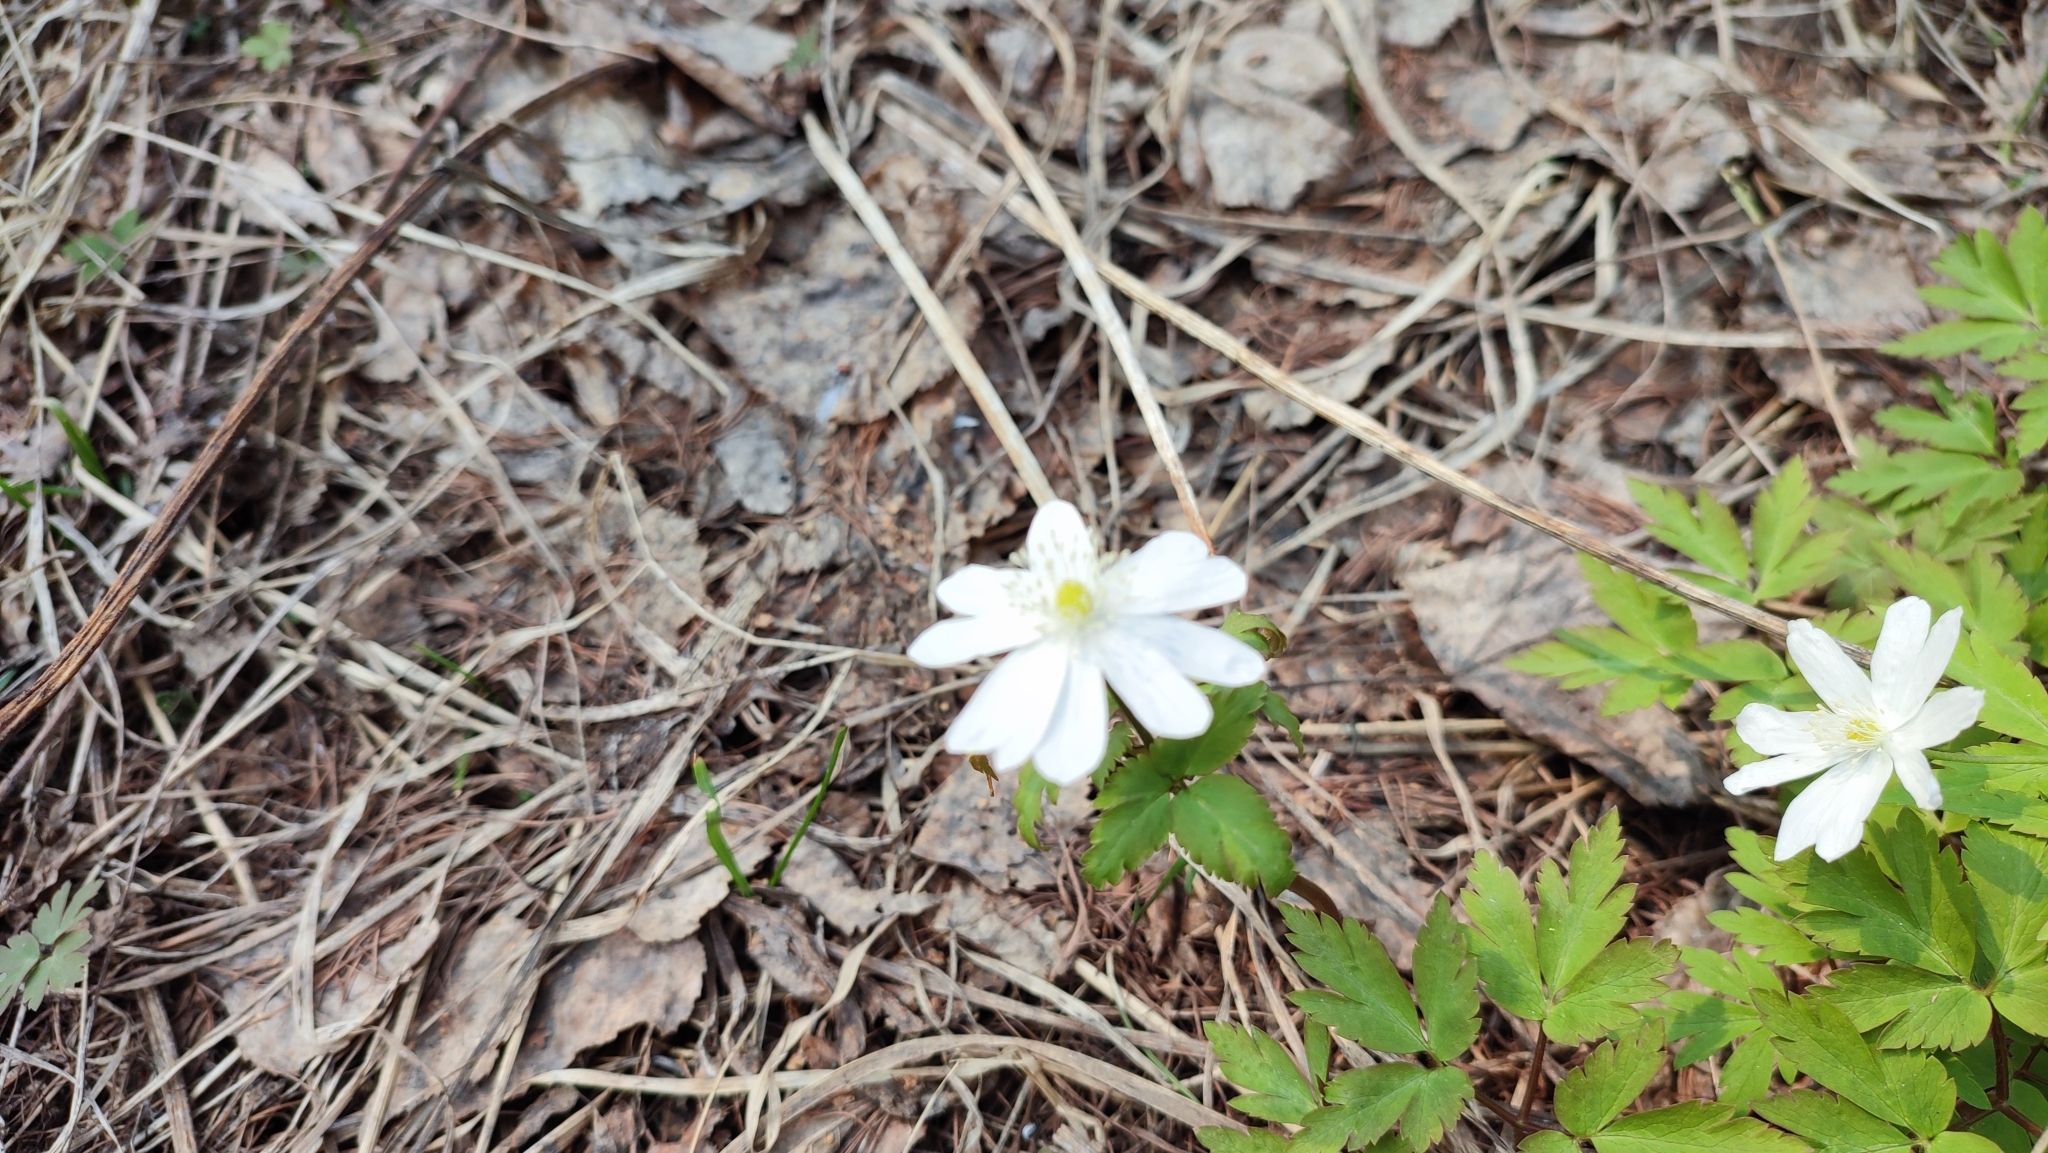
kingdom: Plantae
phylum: Tracheophyta
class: Magnoliopsida
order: Ranunculales
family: Ranunculaceae
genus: Anemone
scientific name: Anemone altaica
